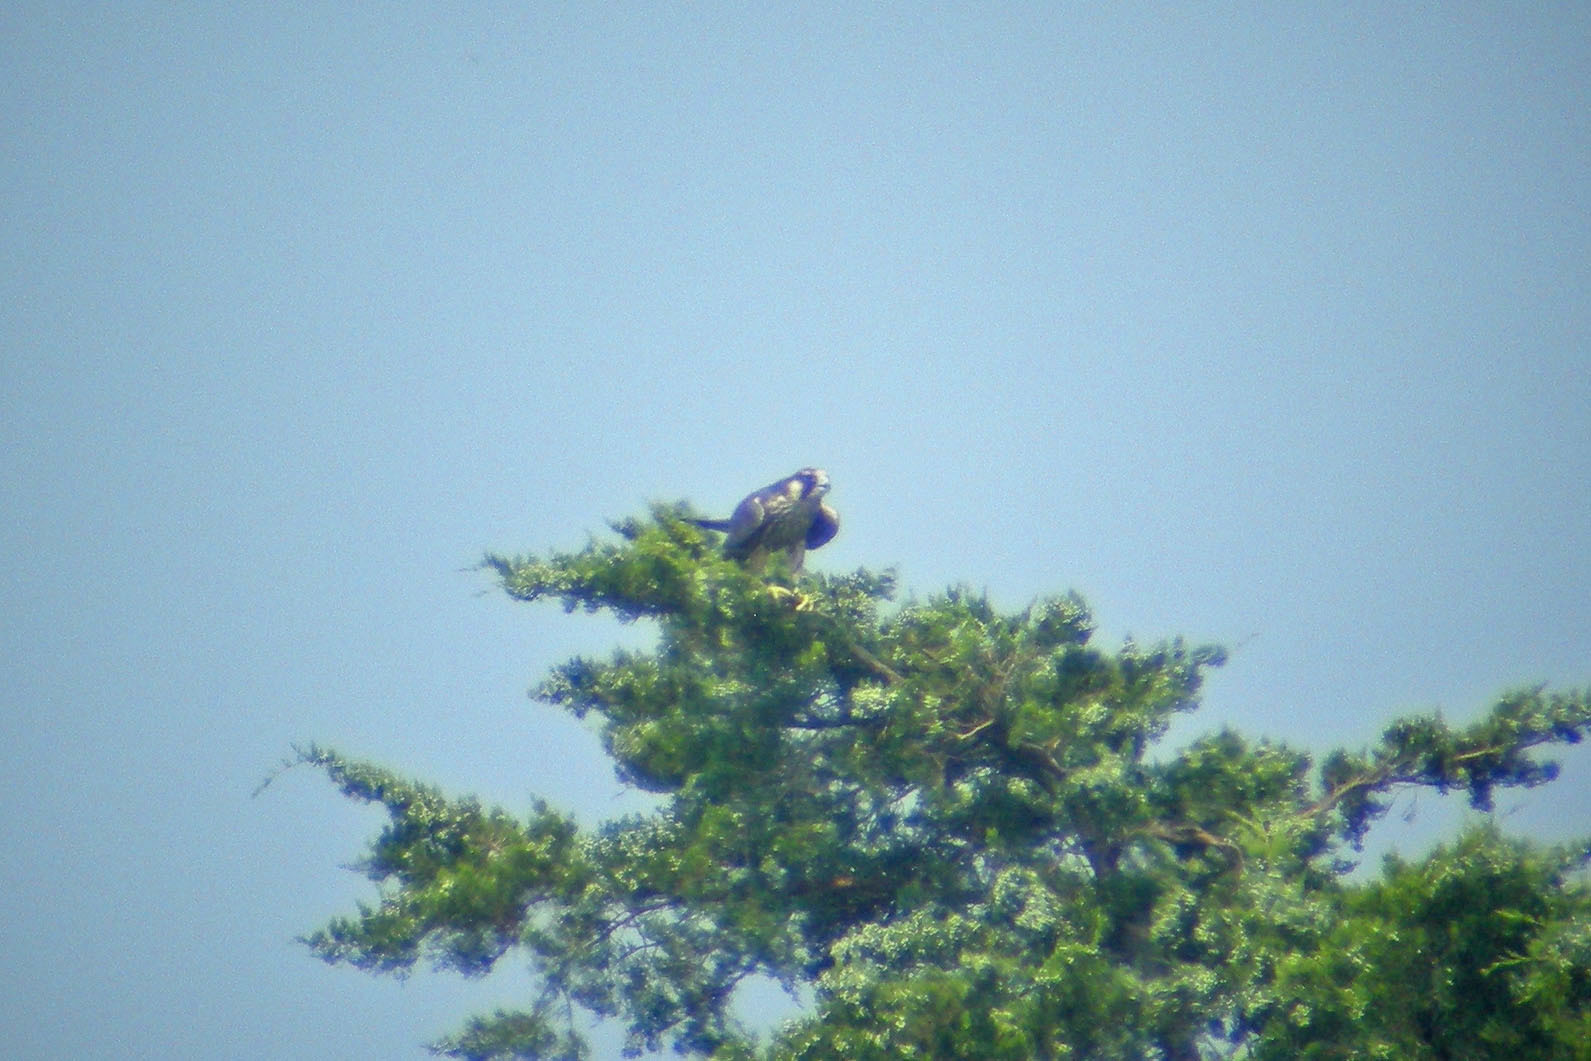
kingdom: Animalia
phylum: Chordata
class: Aves
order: Falconiformes
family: Falconidae
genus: Falco
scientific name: Falco peregrinus
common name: Peregrine falcon
